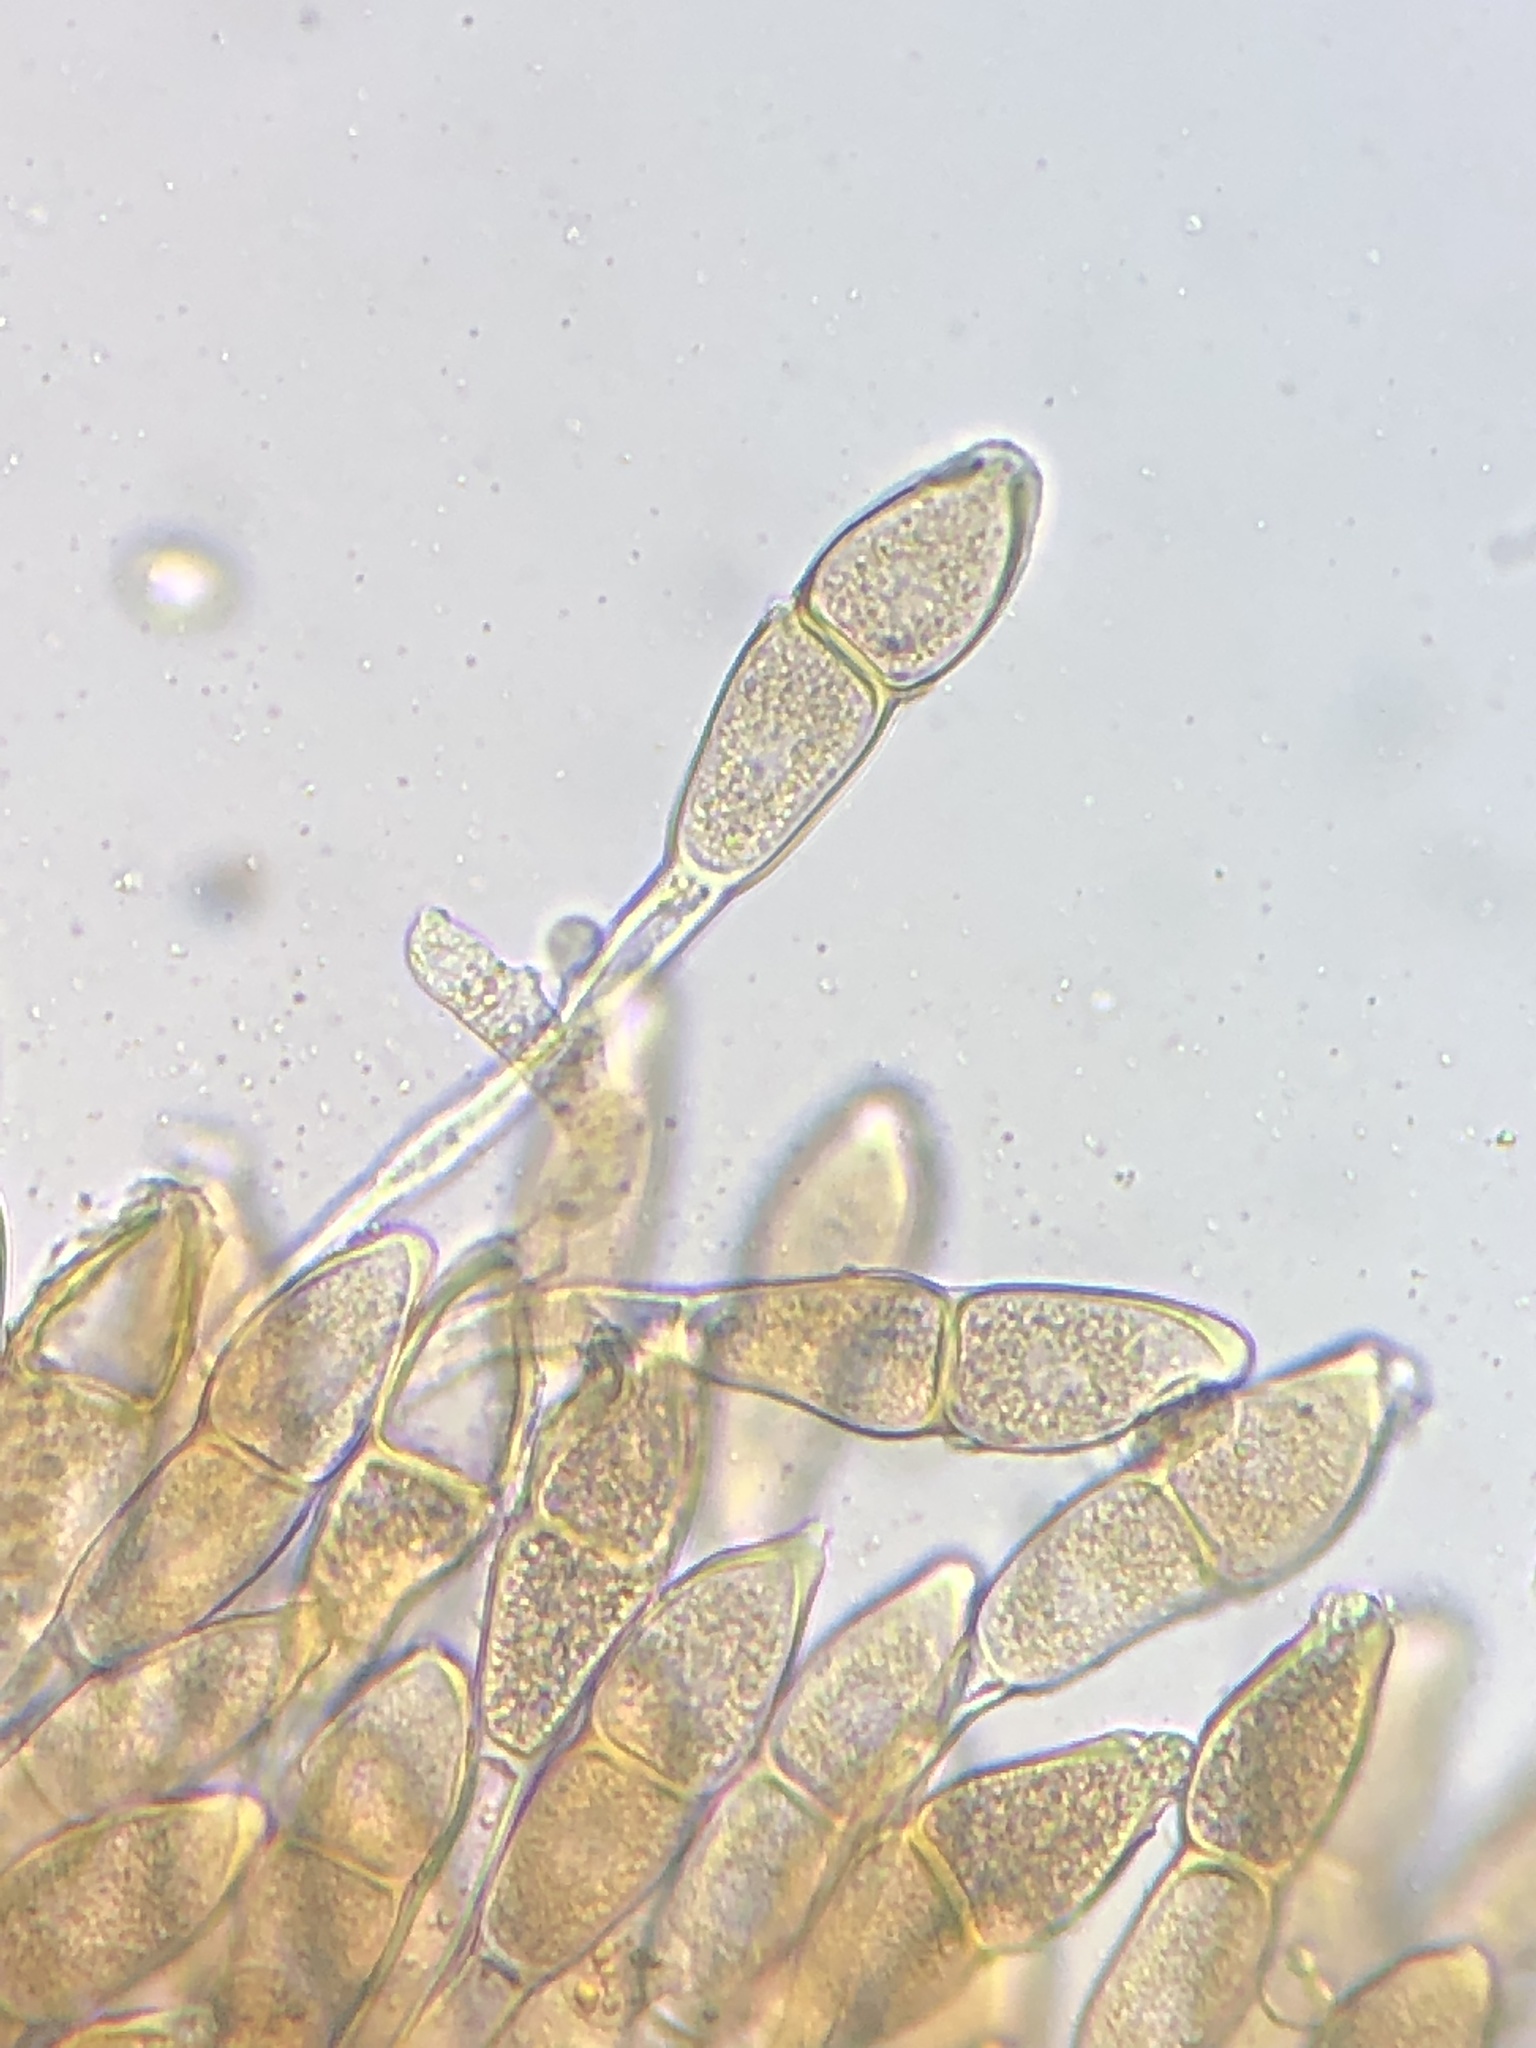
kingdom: Fungi
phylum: Basidiomycota
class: Pucciniomycetes
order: Pucciniales
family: Pucciniaceae
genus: Puccinia
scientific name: Puccinia malvacearum
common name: Hollyhock rust
